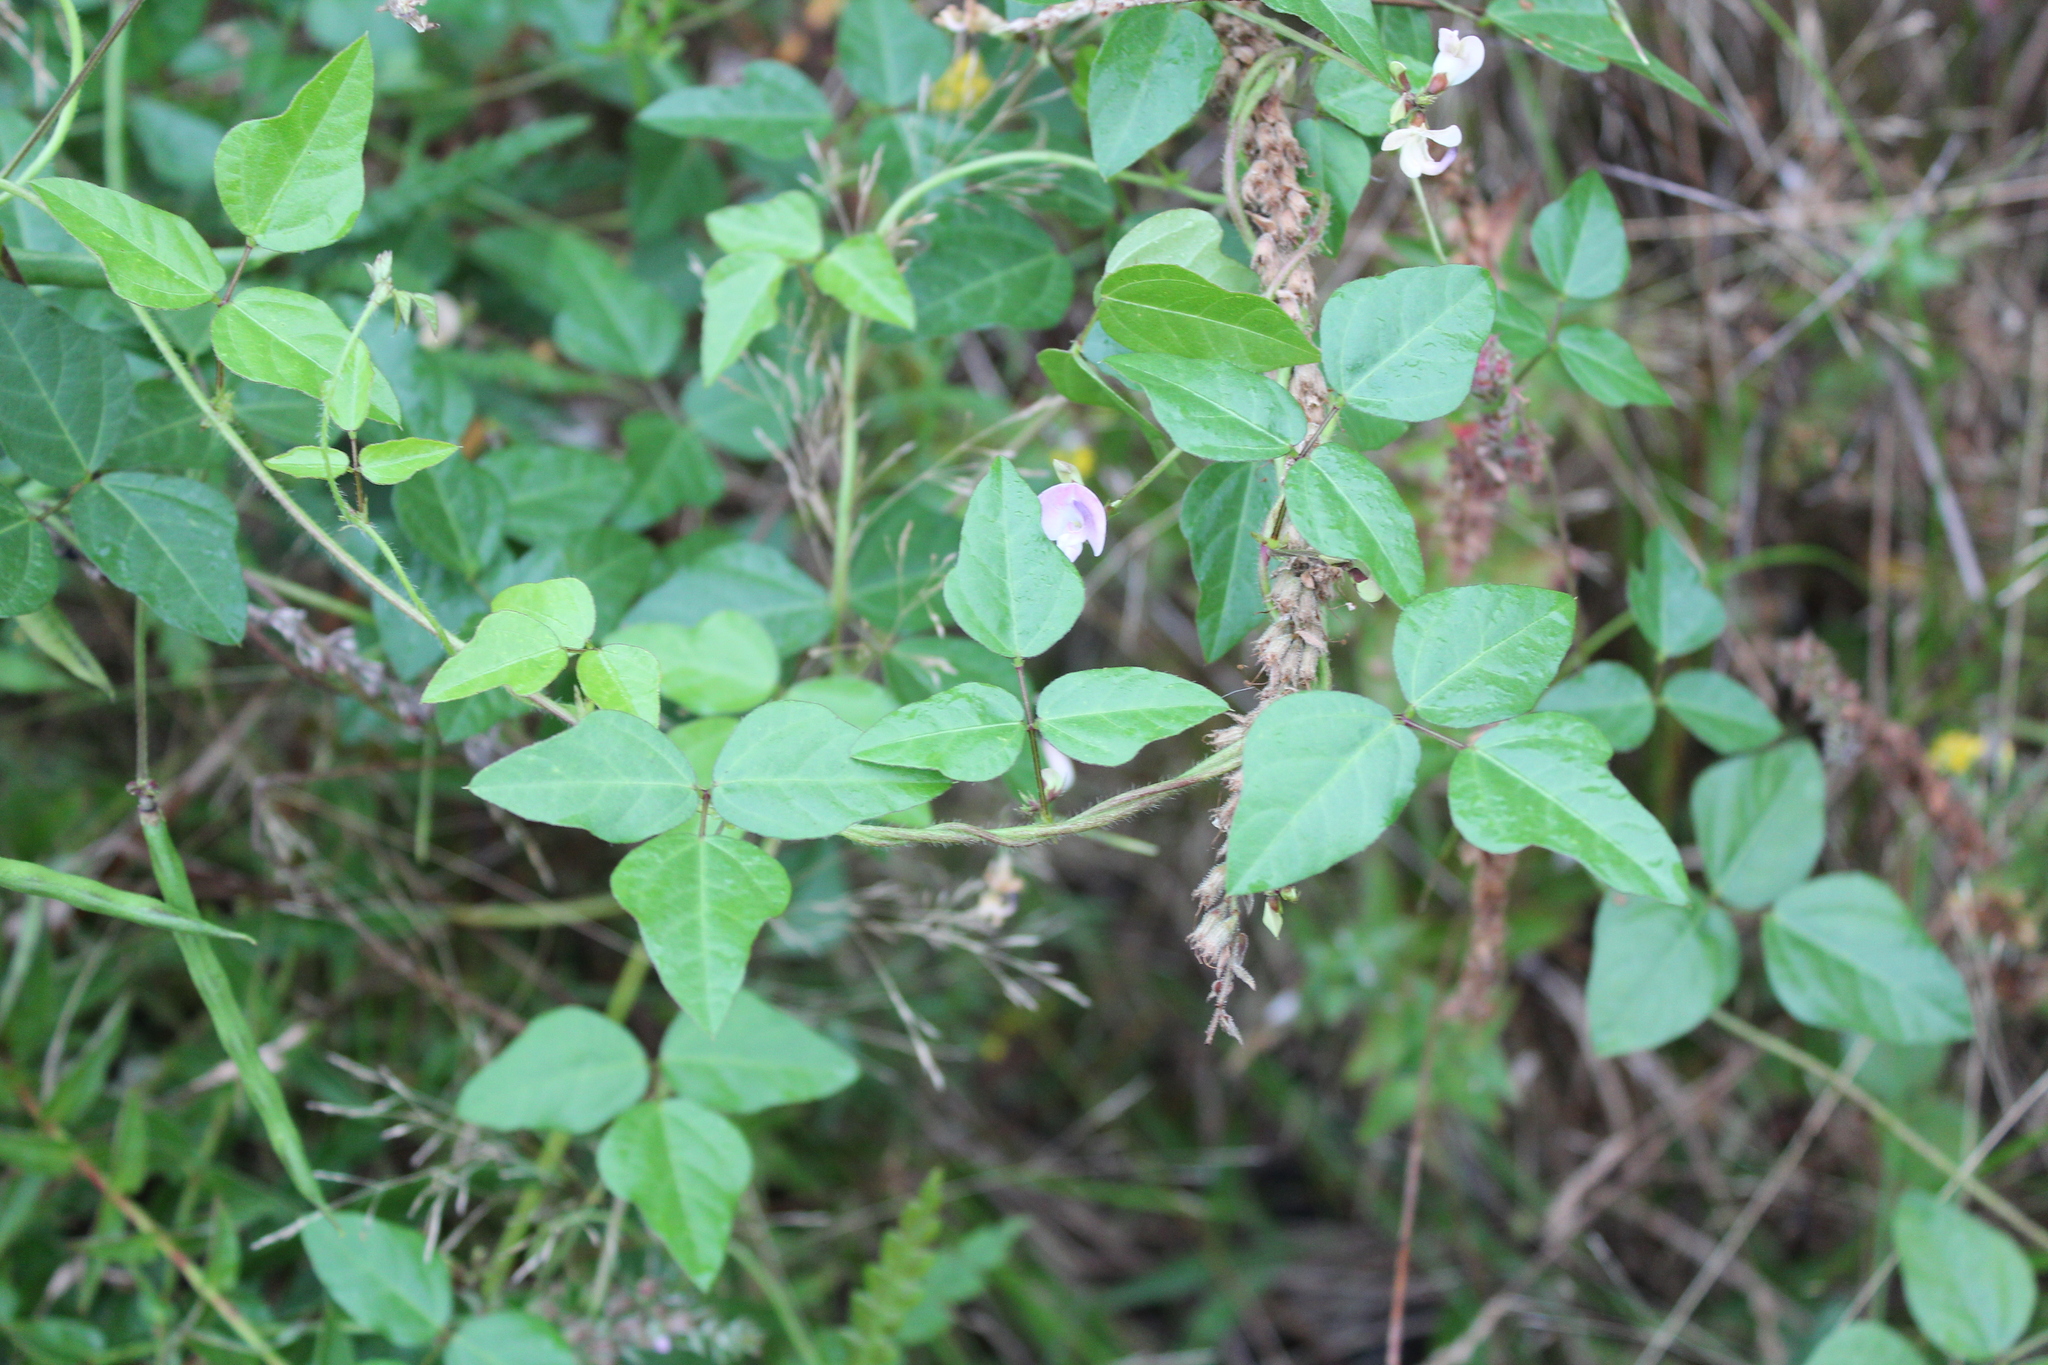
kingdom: Plantae
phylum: Tracheophyta
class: Magnoliopsida
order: Fabales
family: Fabaceae
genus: Strophostyles
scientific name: Strophostyles helvola
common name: Trailing wild bean
